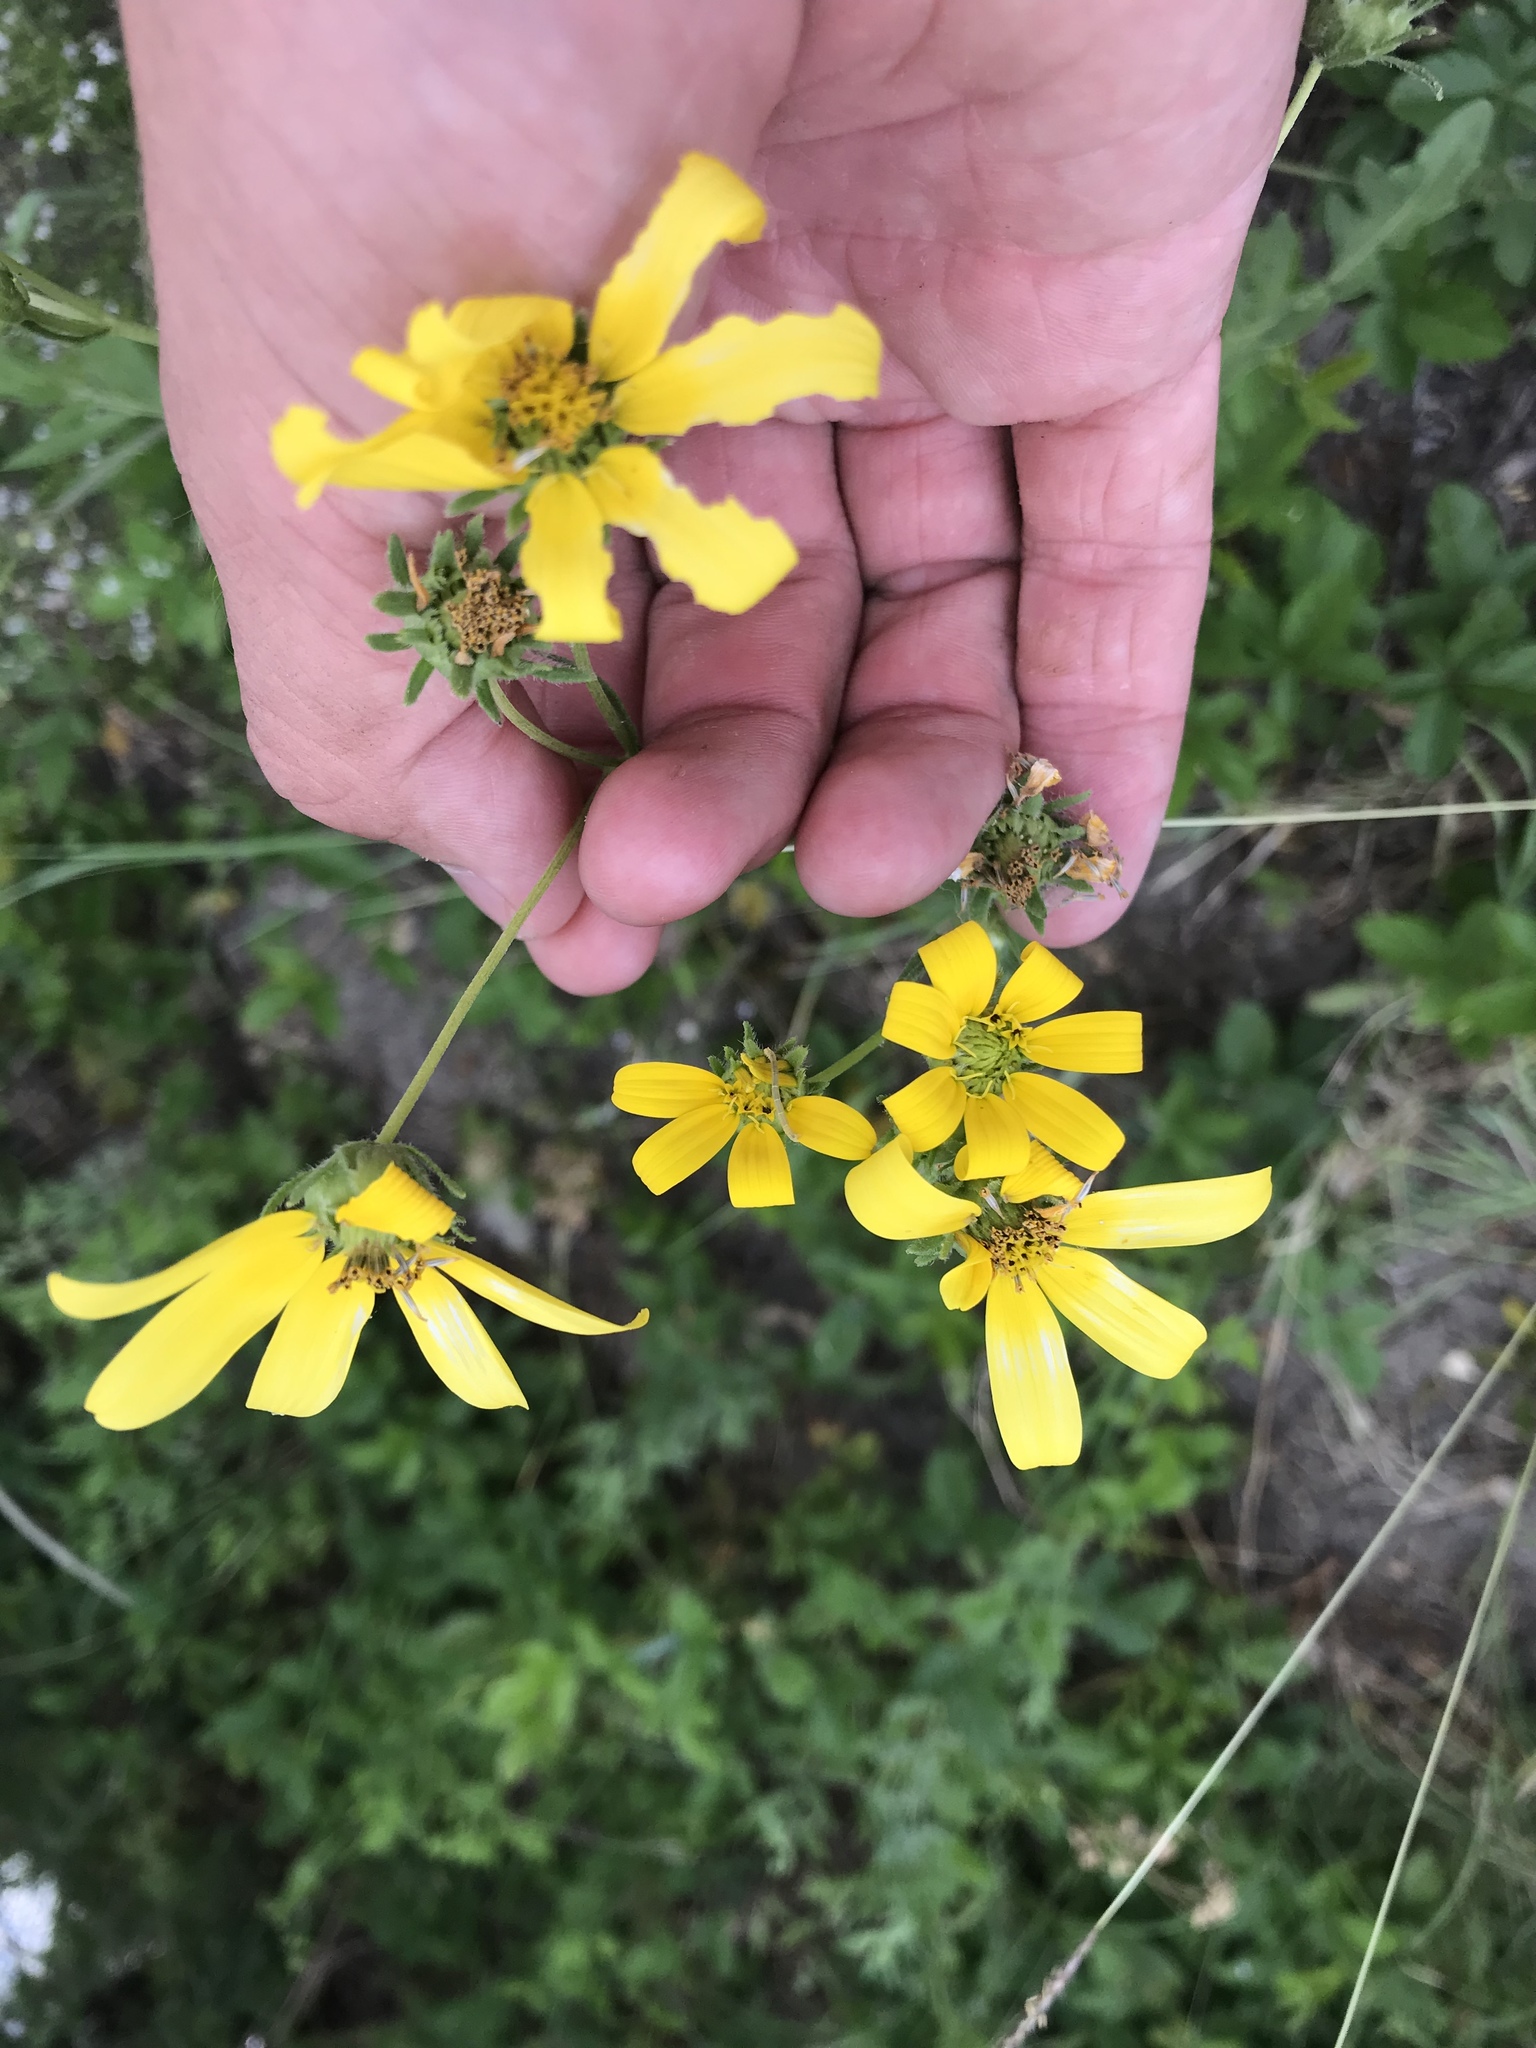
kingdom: Plantae
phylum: Tracheophyta
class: Magnoliopsida
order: Asterales
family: Asteraceae
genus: Engelmannia
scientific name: Engelmannia peristenia
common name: Engelmann's daisy
